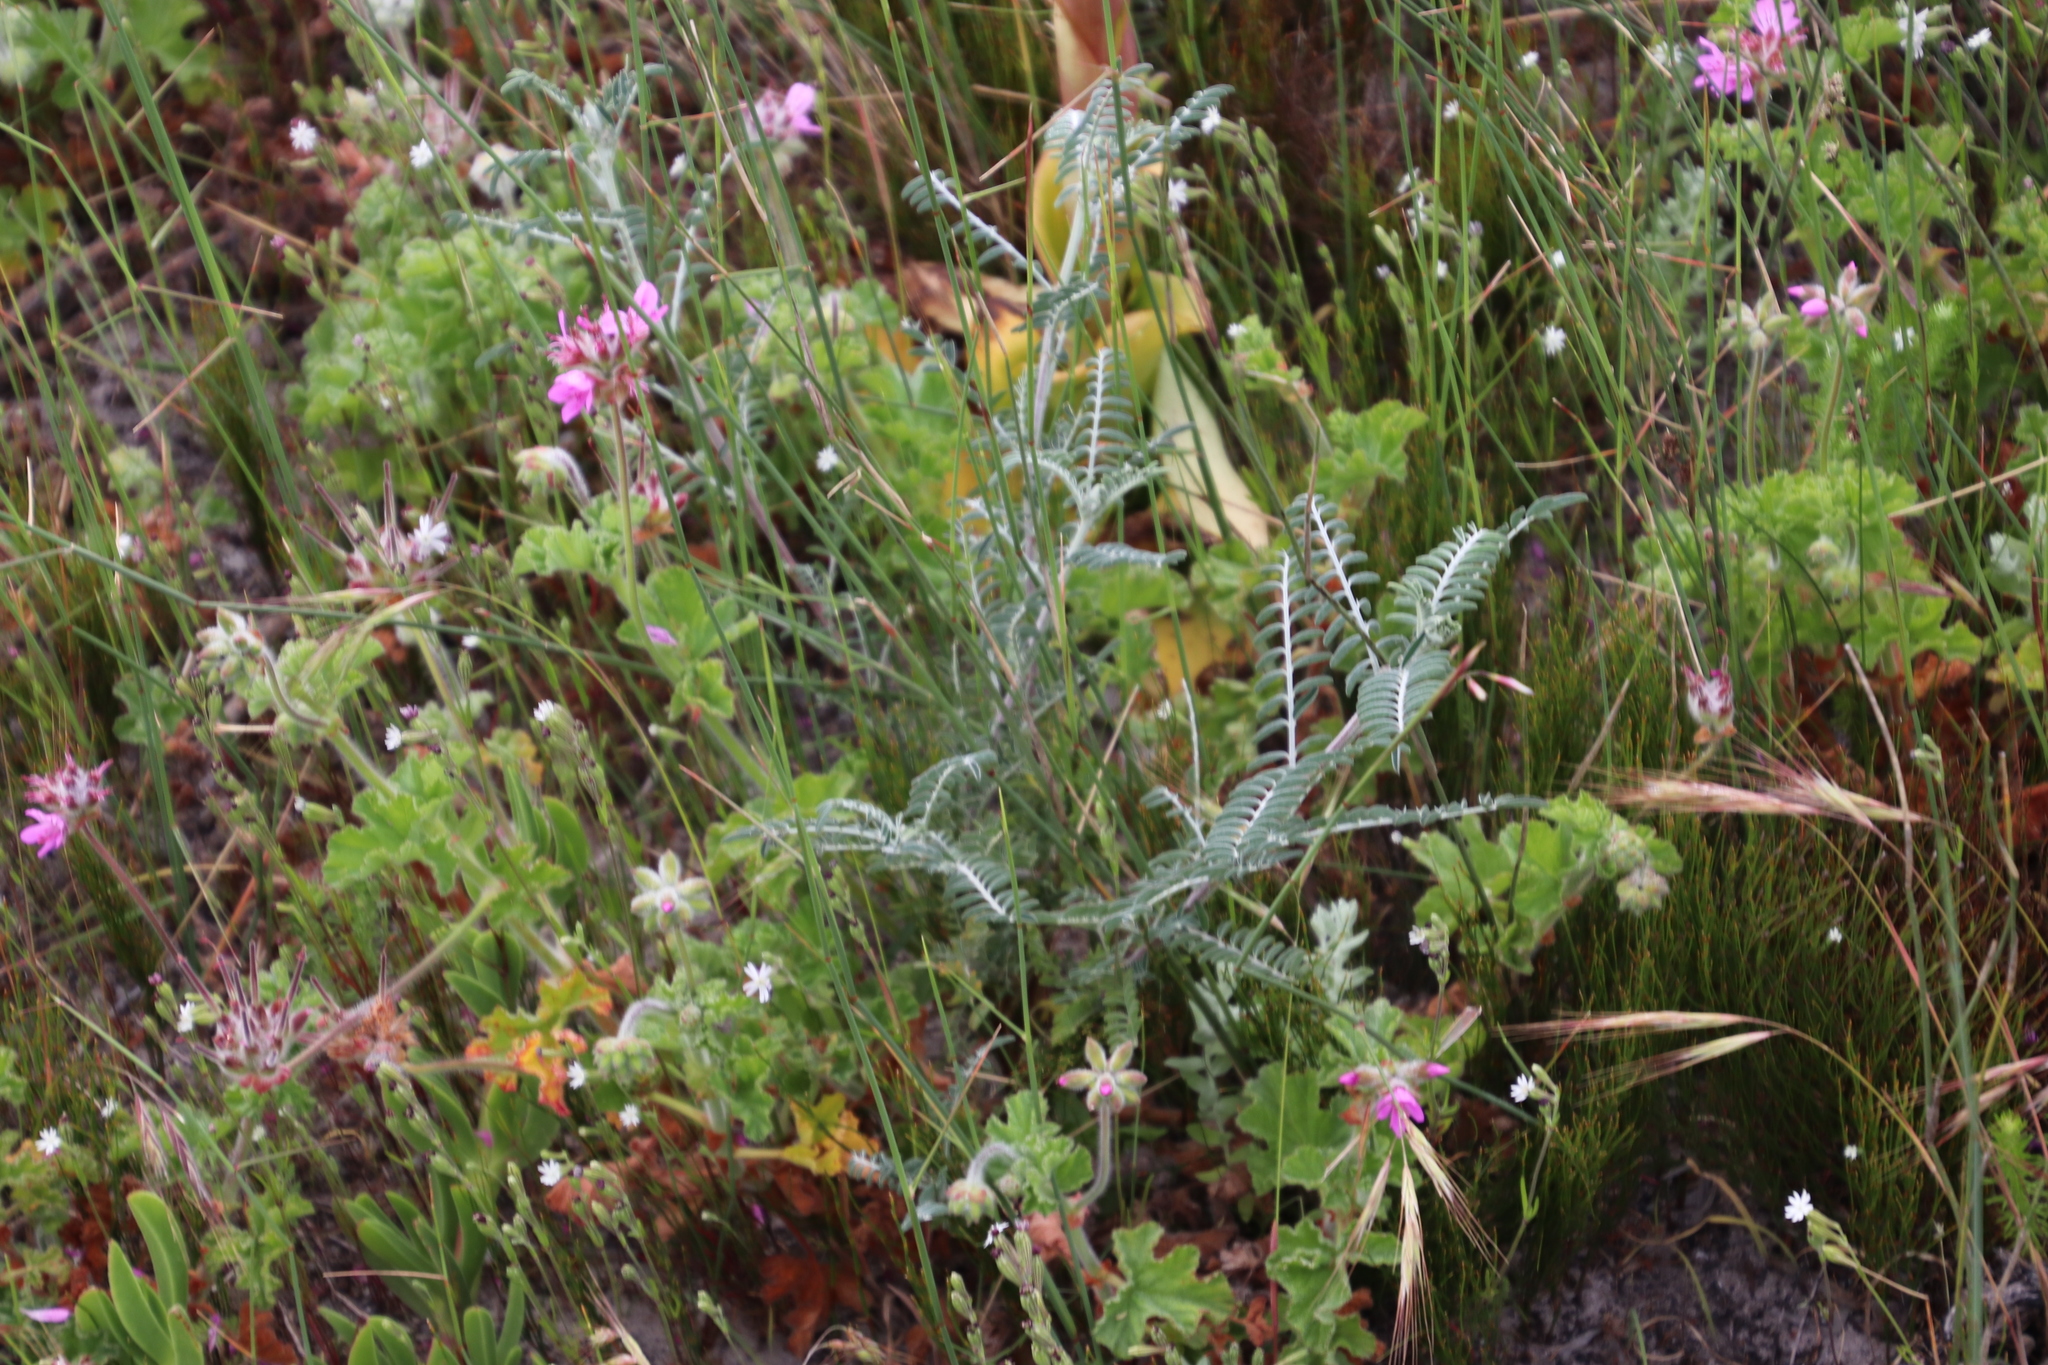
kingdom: Plantae
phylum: Tracheophyta
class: Magnoliopsida
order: Fabales
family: Fabaceae
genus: Lessertia
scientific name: Lessertia frutescens
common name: Balloon-pea
